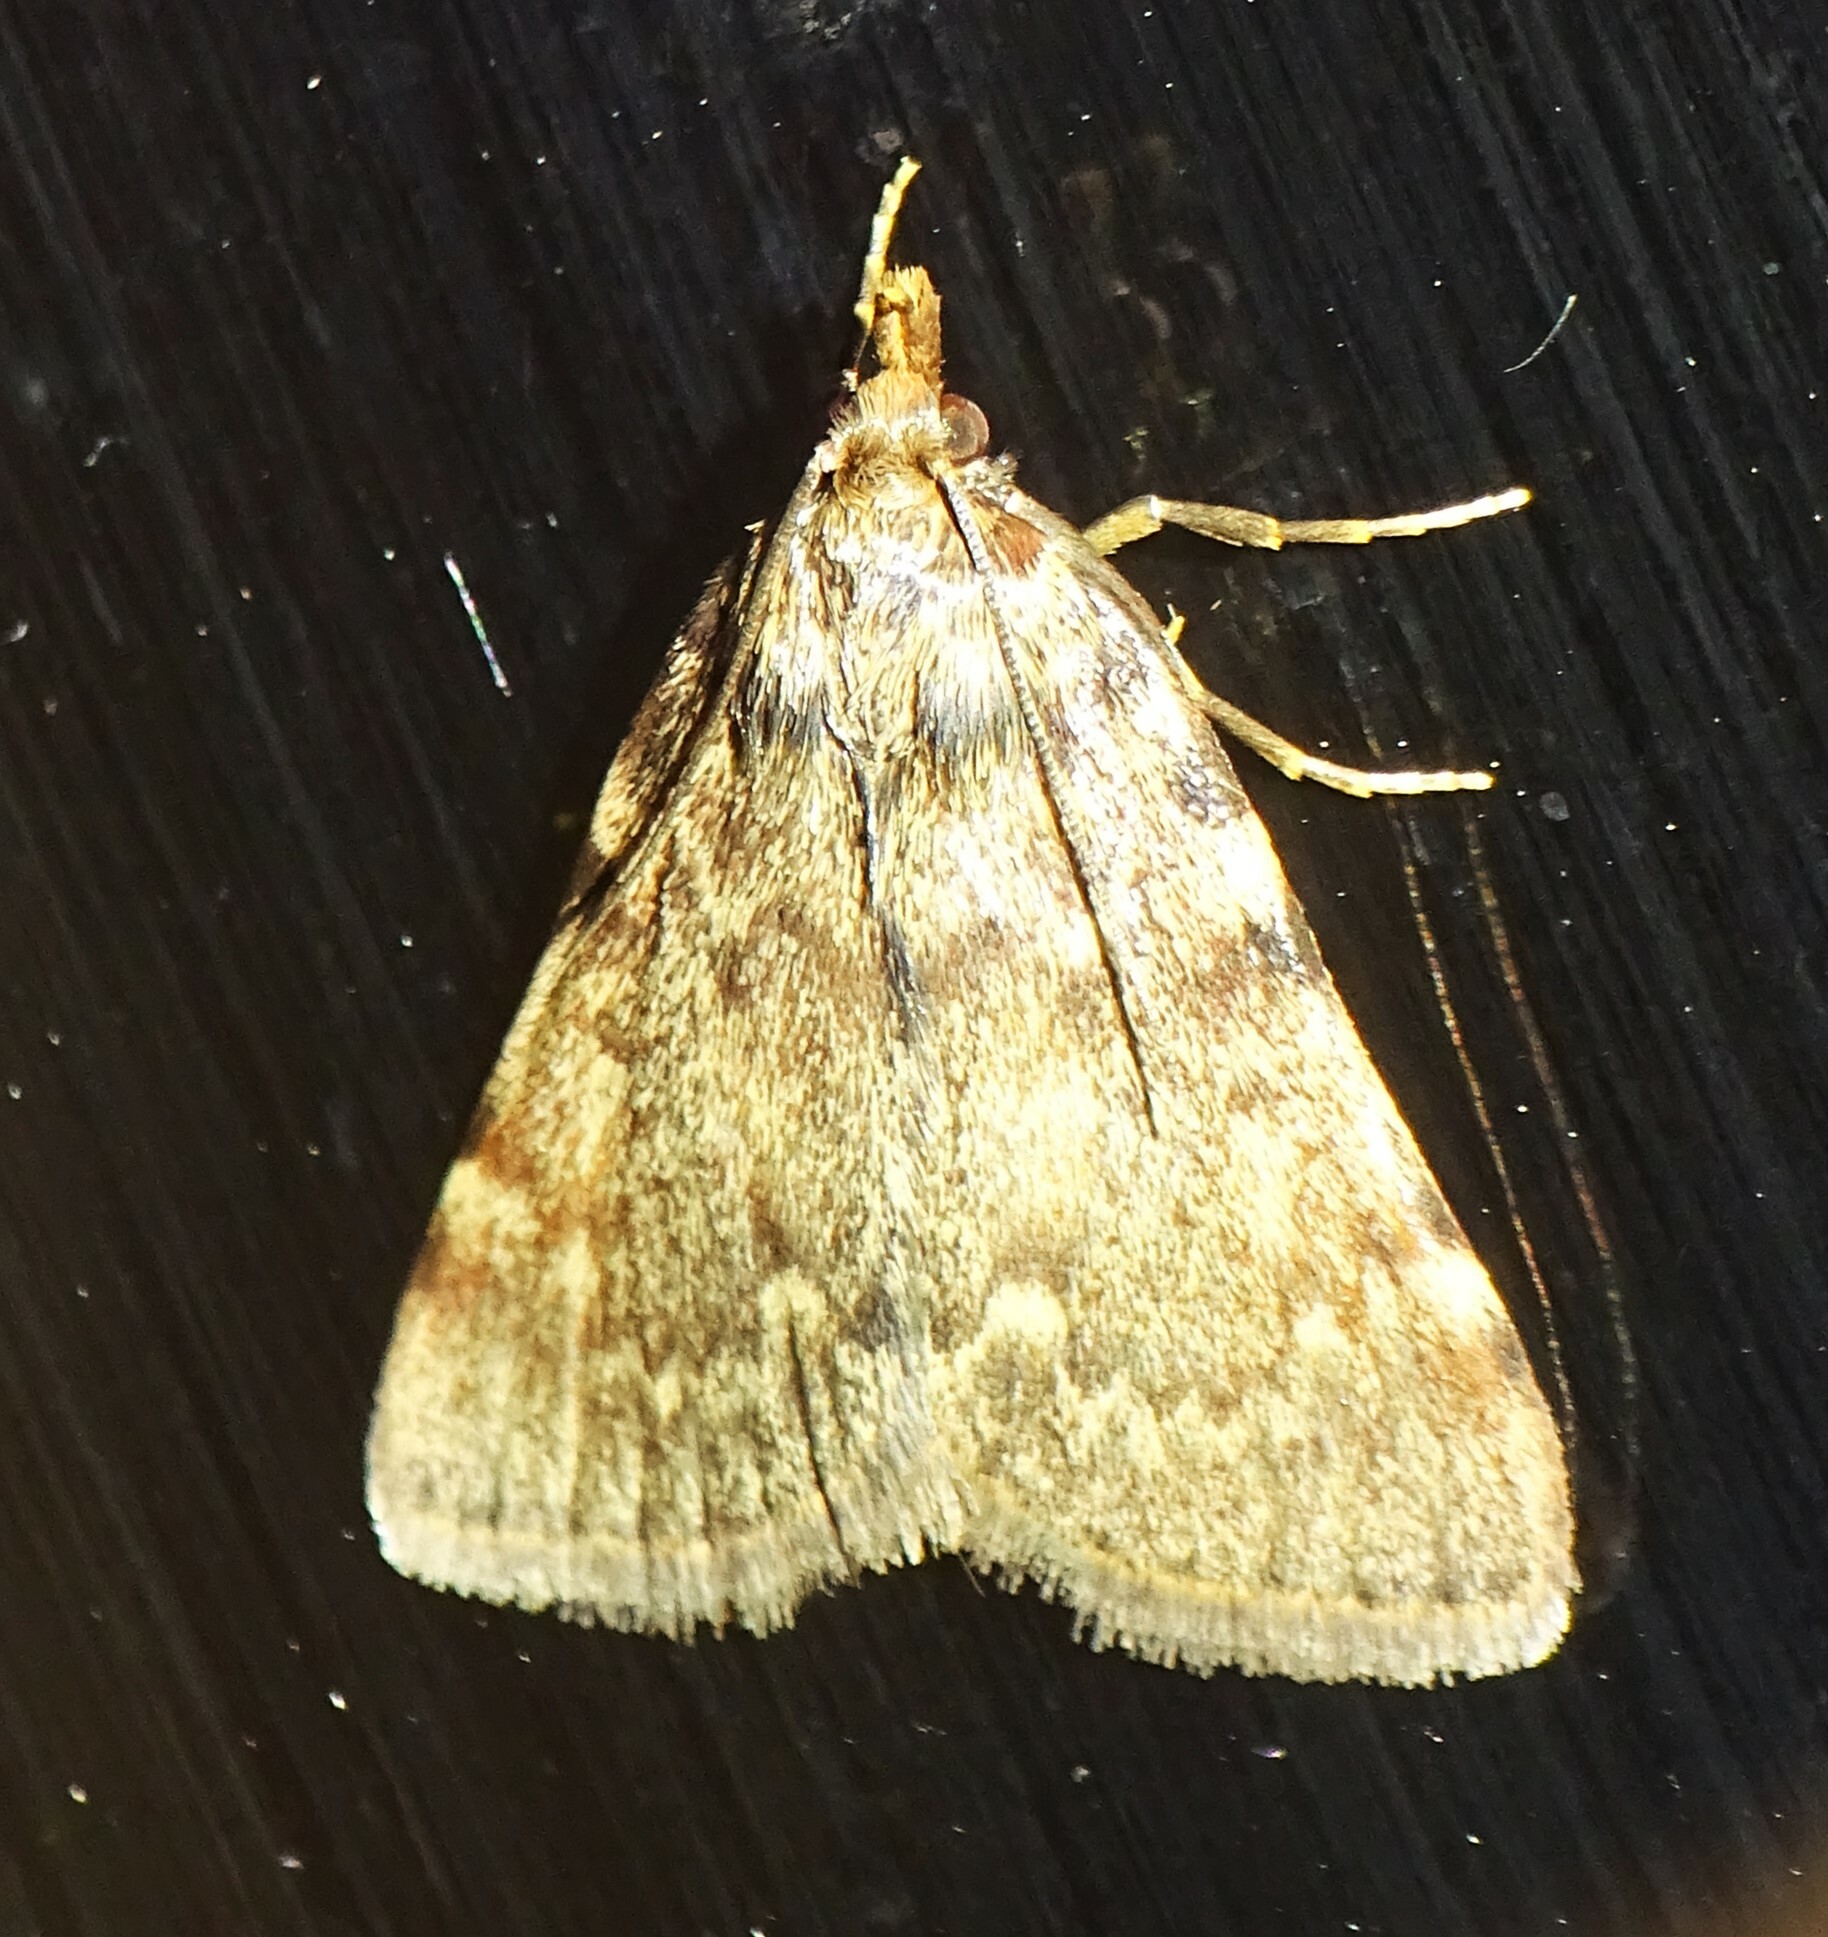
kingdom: Animalia
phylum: Arthropoda
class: Insecta
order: Lepidoptera
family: Pyralidae
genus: Aglossa
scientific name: Aglossa pinguinalis
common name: Large tabby
